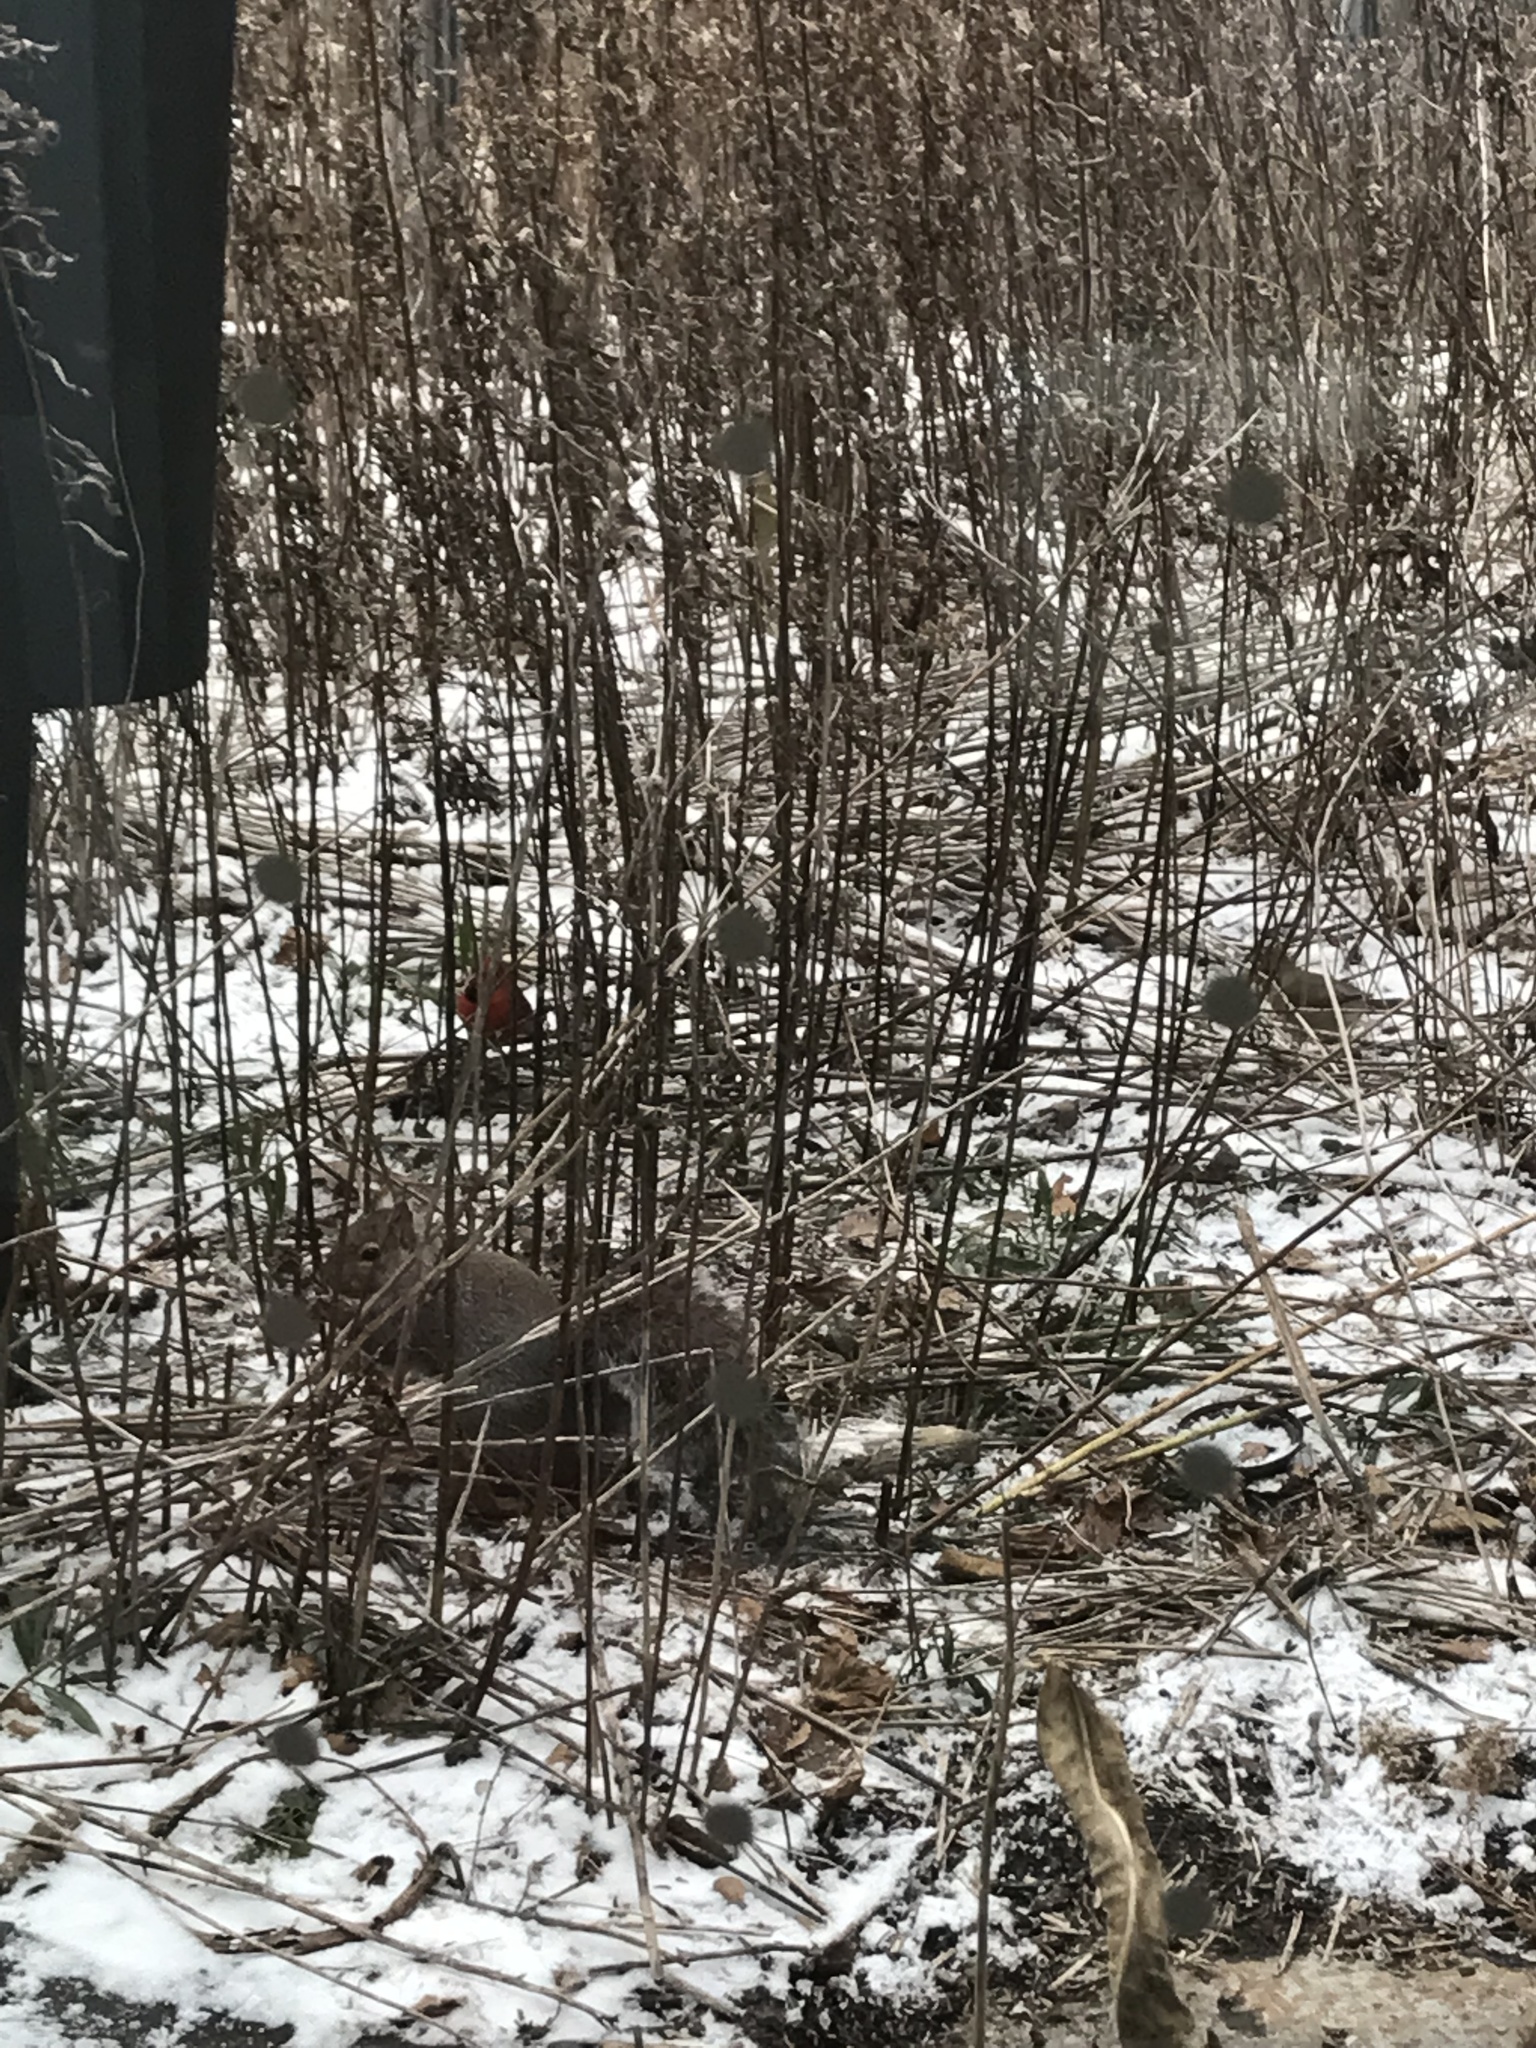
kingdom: Animalia
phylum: Chordata
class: Aves
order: Passeriformes
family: Cardinalidae
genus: Cardinalis
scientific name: Cardinalis cardinalis
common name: Northern cardinal
